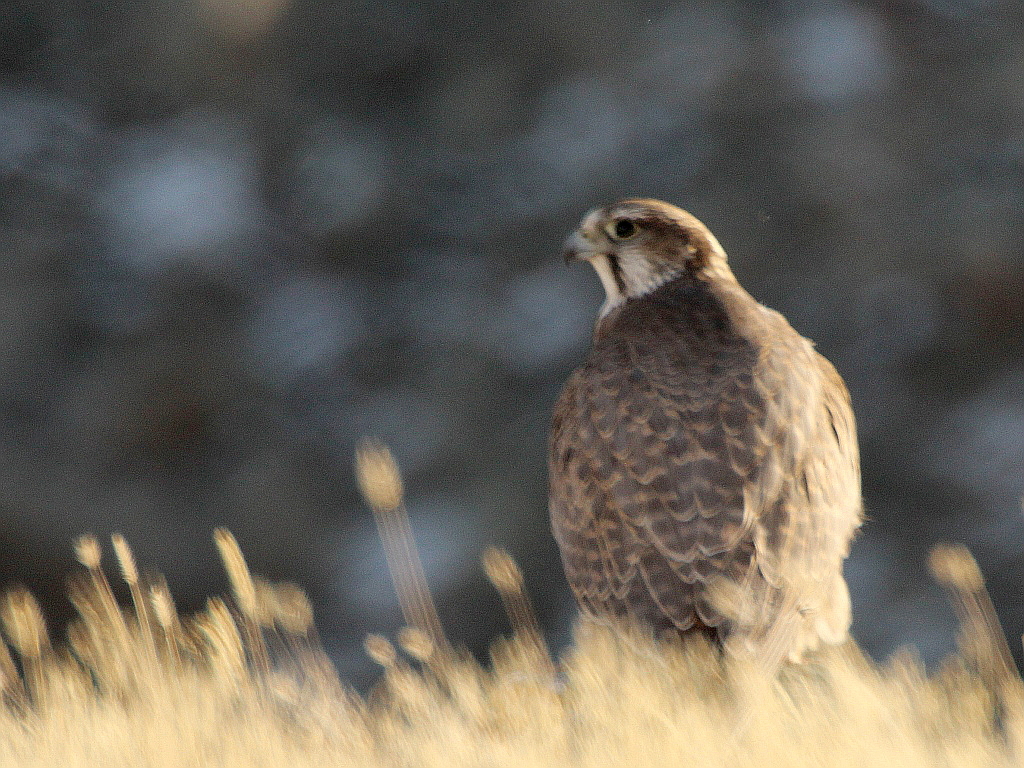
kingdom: Animalia
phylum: Chordata
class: Aves
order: Falconiformes
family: Falconidae
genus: Falco
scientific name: Falco cherrug
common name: Saker falcon
